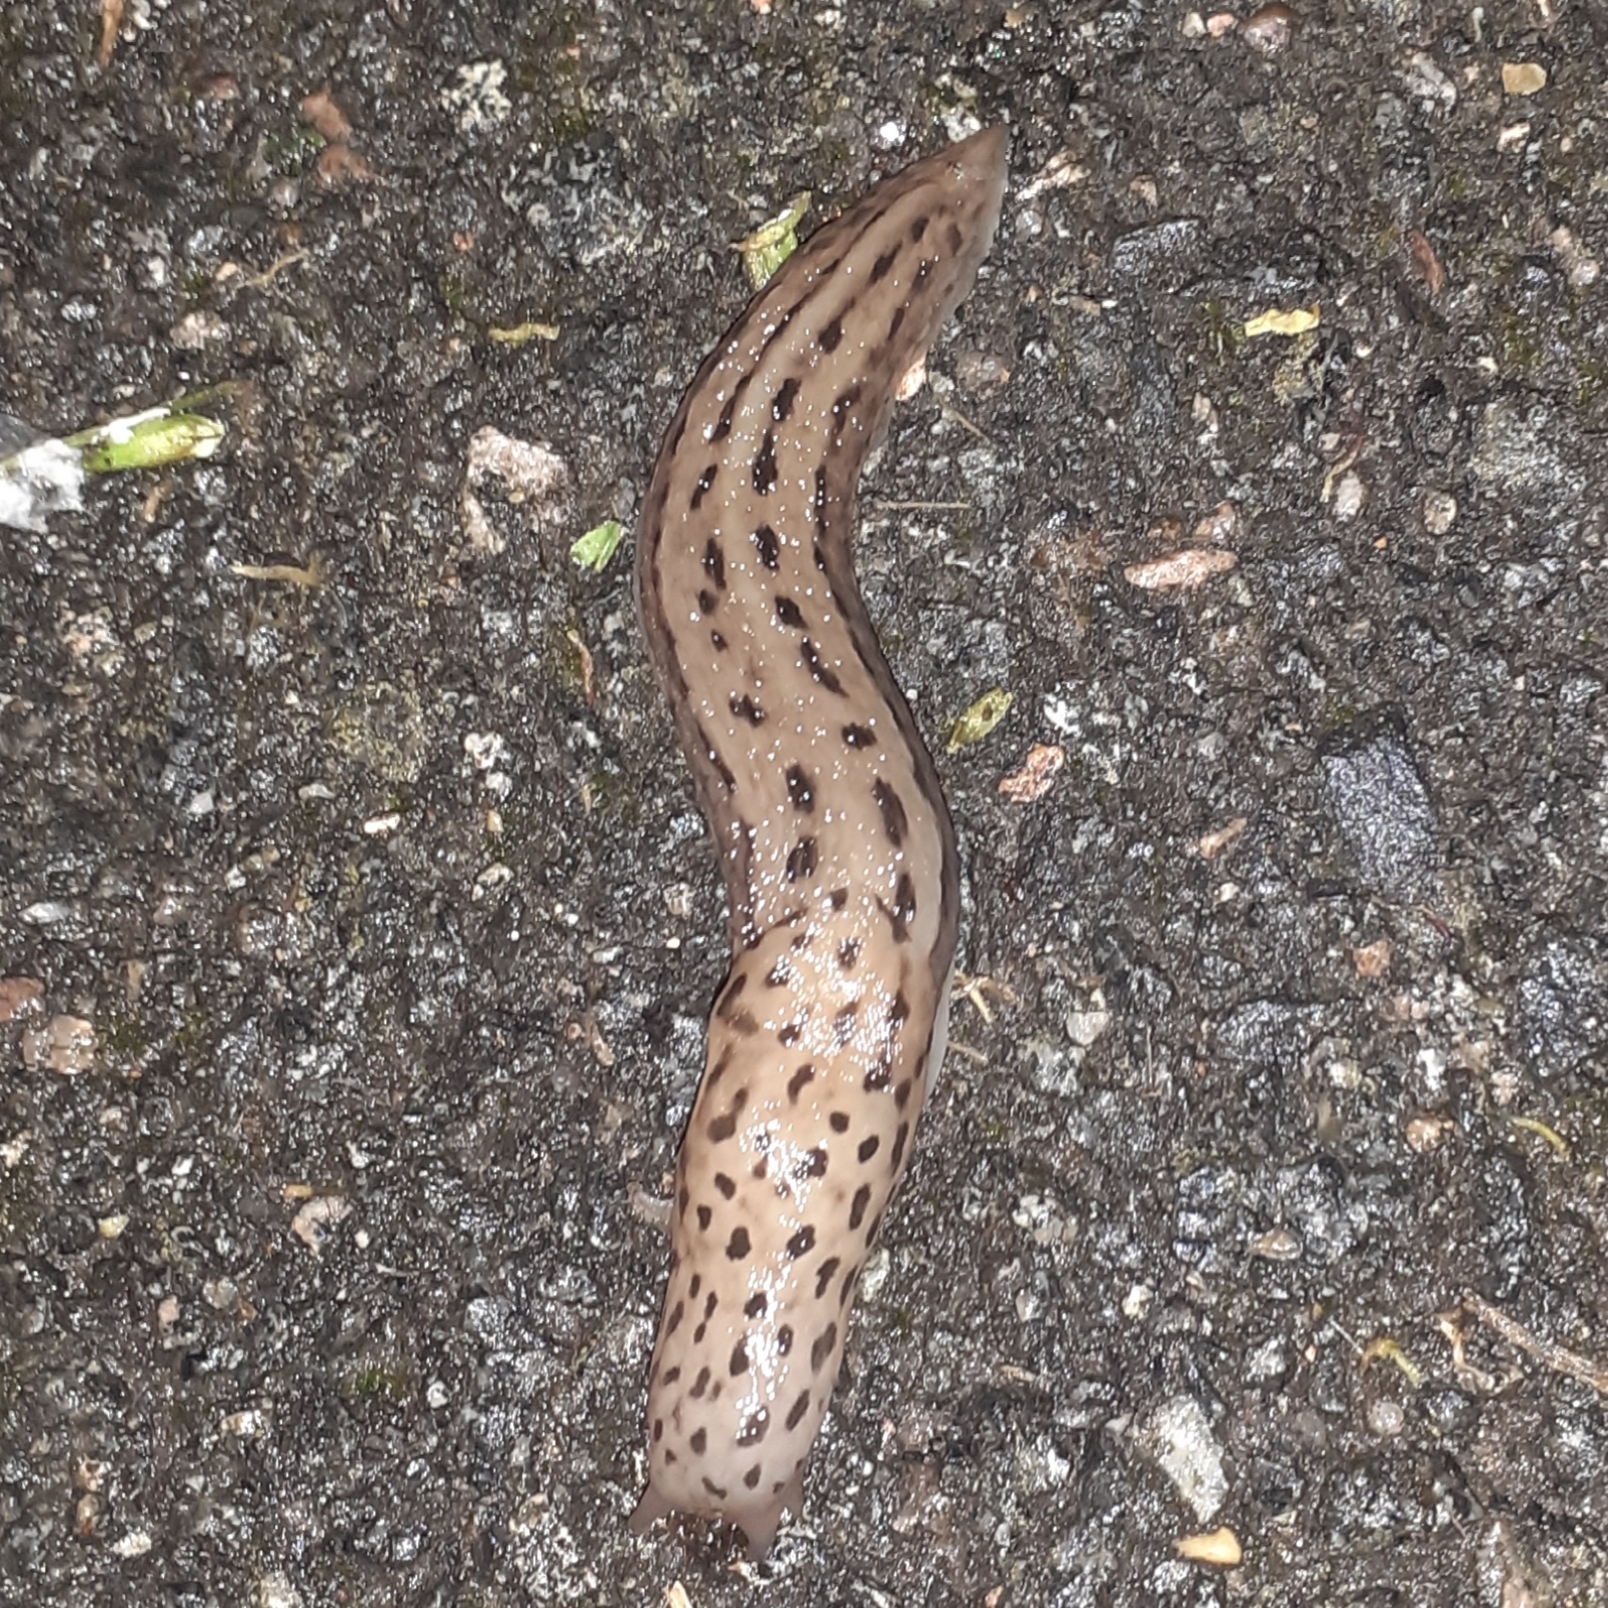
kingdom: Animalia
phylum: Mollusca
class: Gastropoda
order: Stylommatophora
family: Limacidae
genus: Limax
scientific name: Limax maximus
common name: Great grey slug
